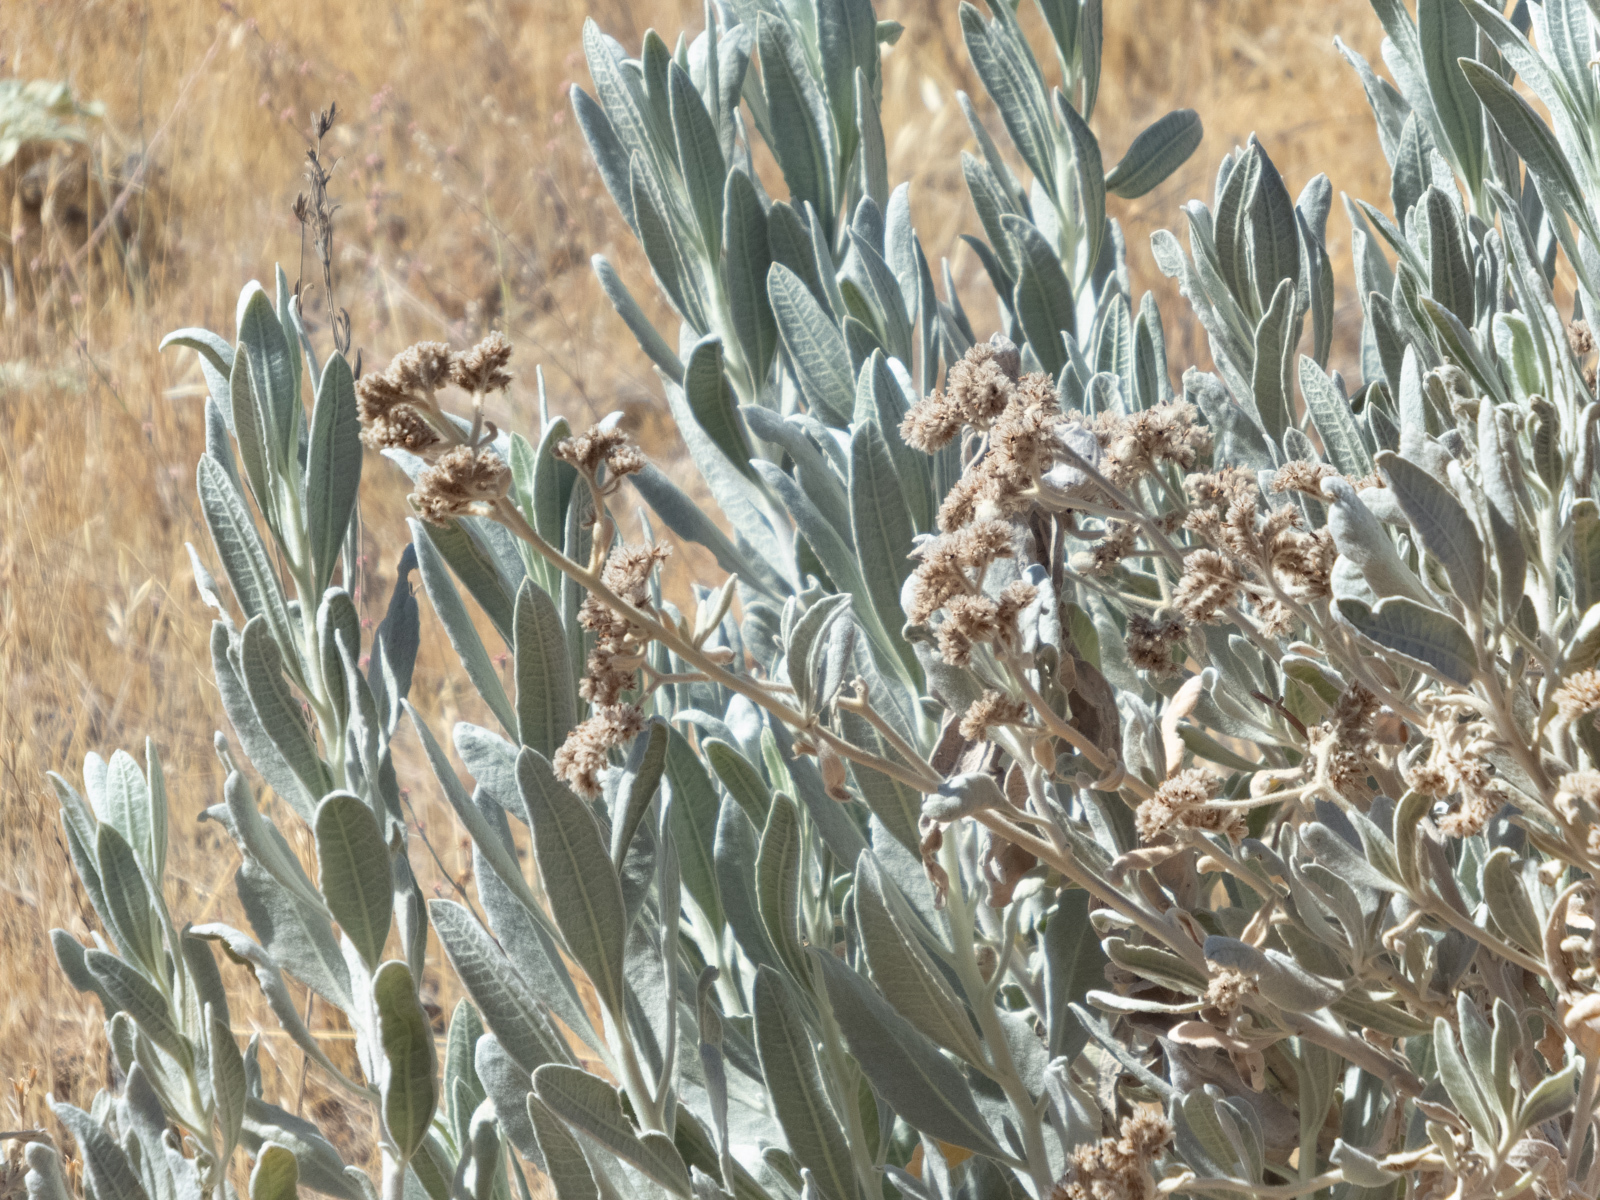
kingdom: Plantae
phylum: Tracheophyta
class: Magnoliopsida
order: Boraginales
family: Namaceae
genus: Eriodictyon
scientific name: Eriodictyon tomentosum
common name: Woolly yerba-santa
